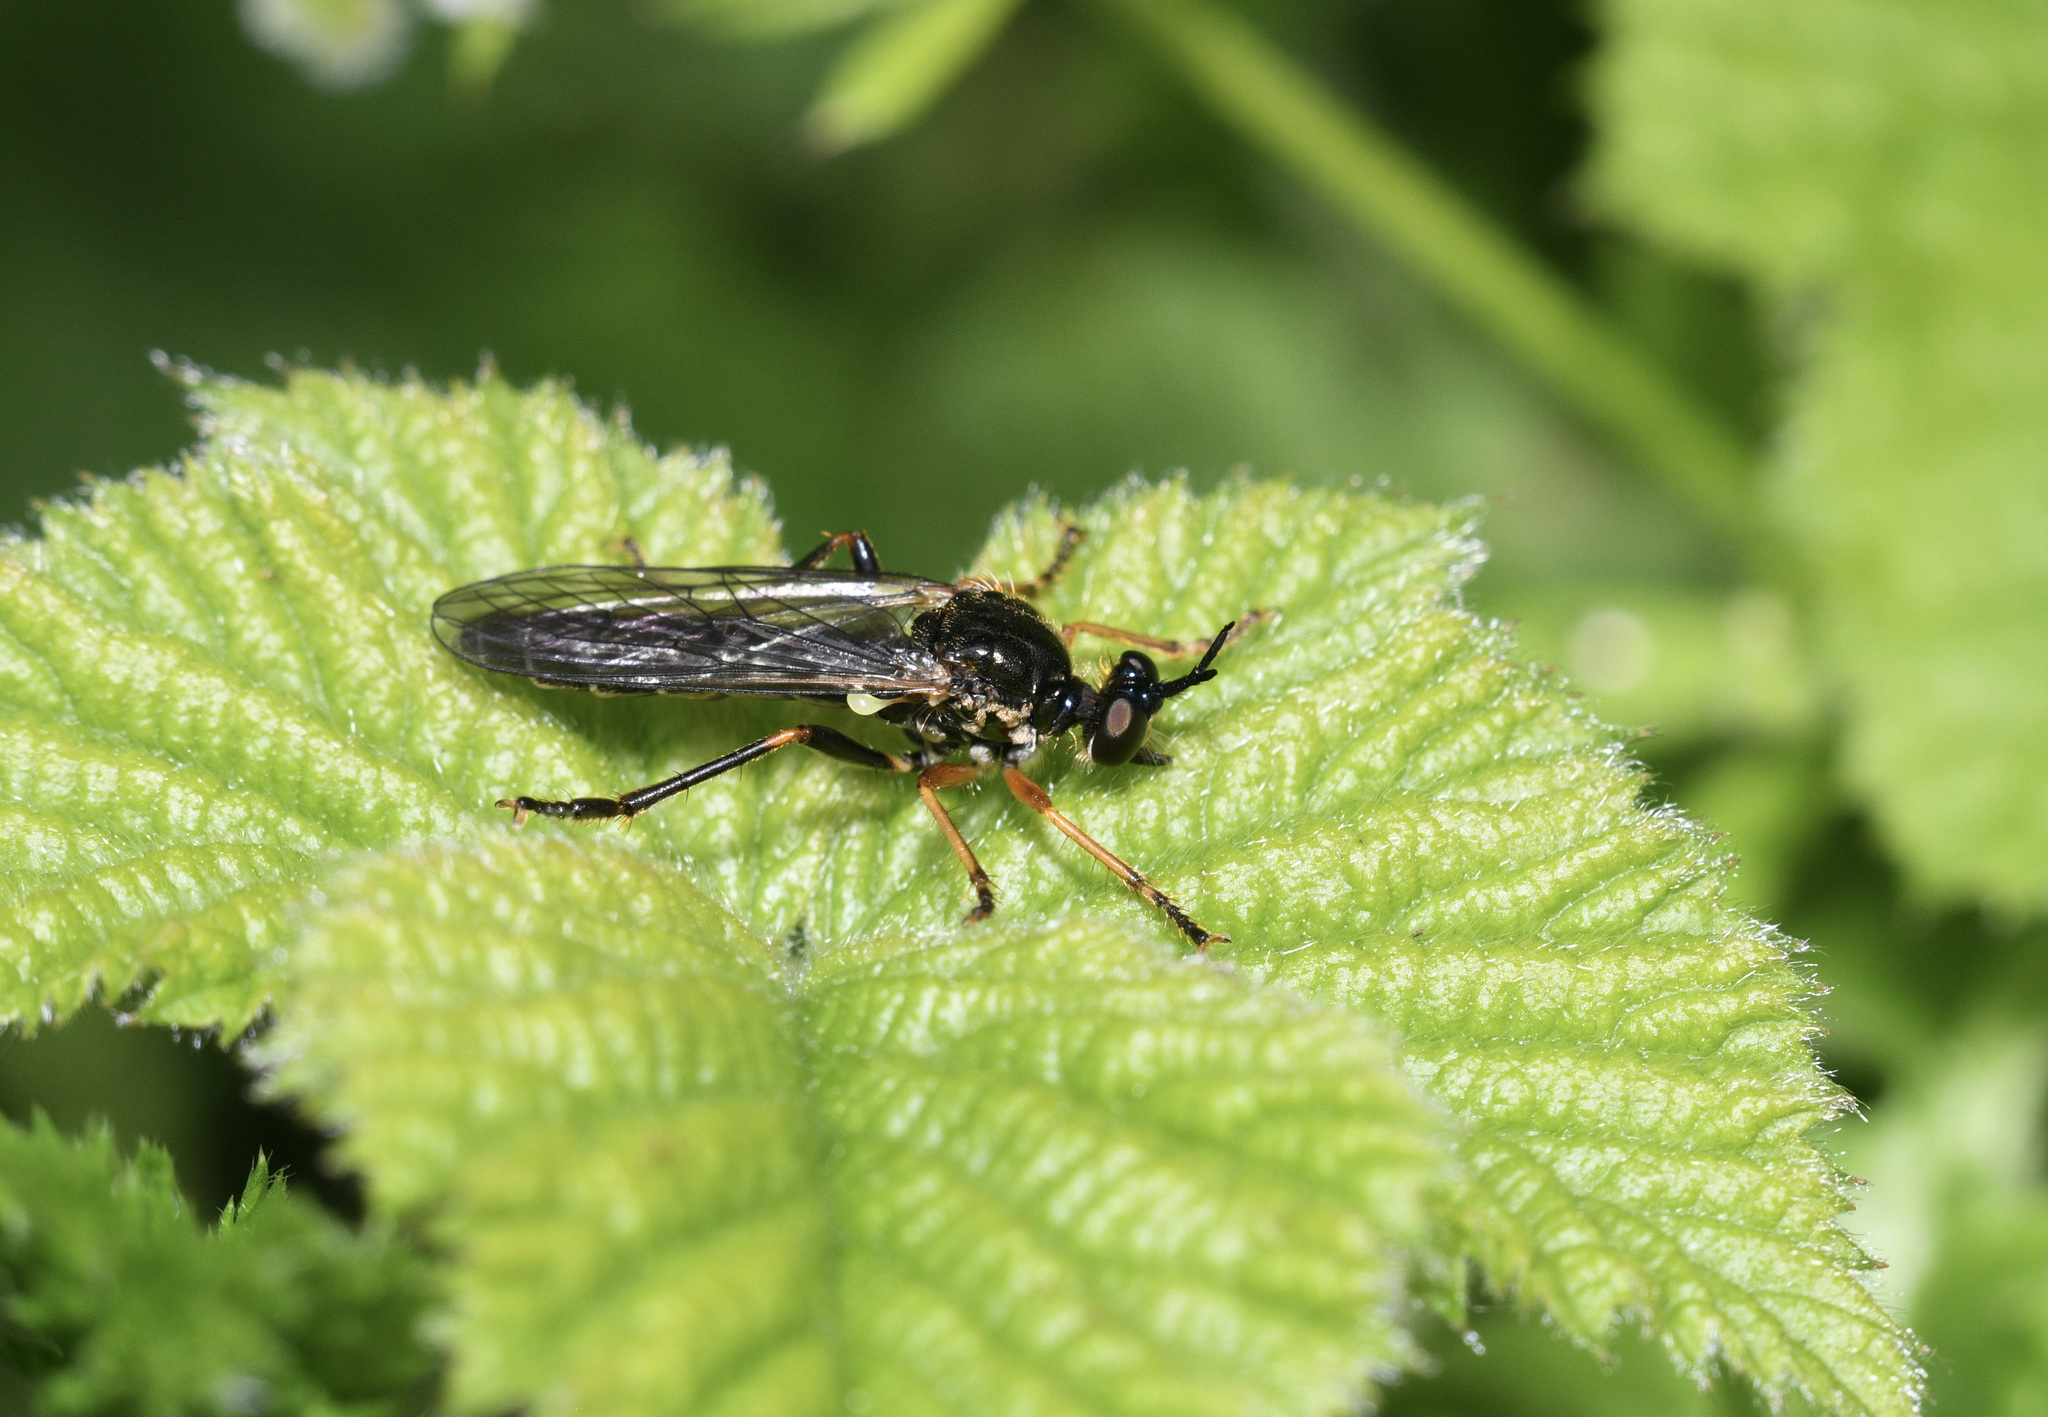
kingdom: Animalia
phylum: Arthropoda
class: Insecta
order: Diptera
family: Asilidae
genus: Dioctria
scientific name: Dioctria rufipes
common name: Common red-legged robberfly
